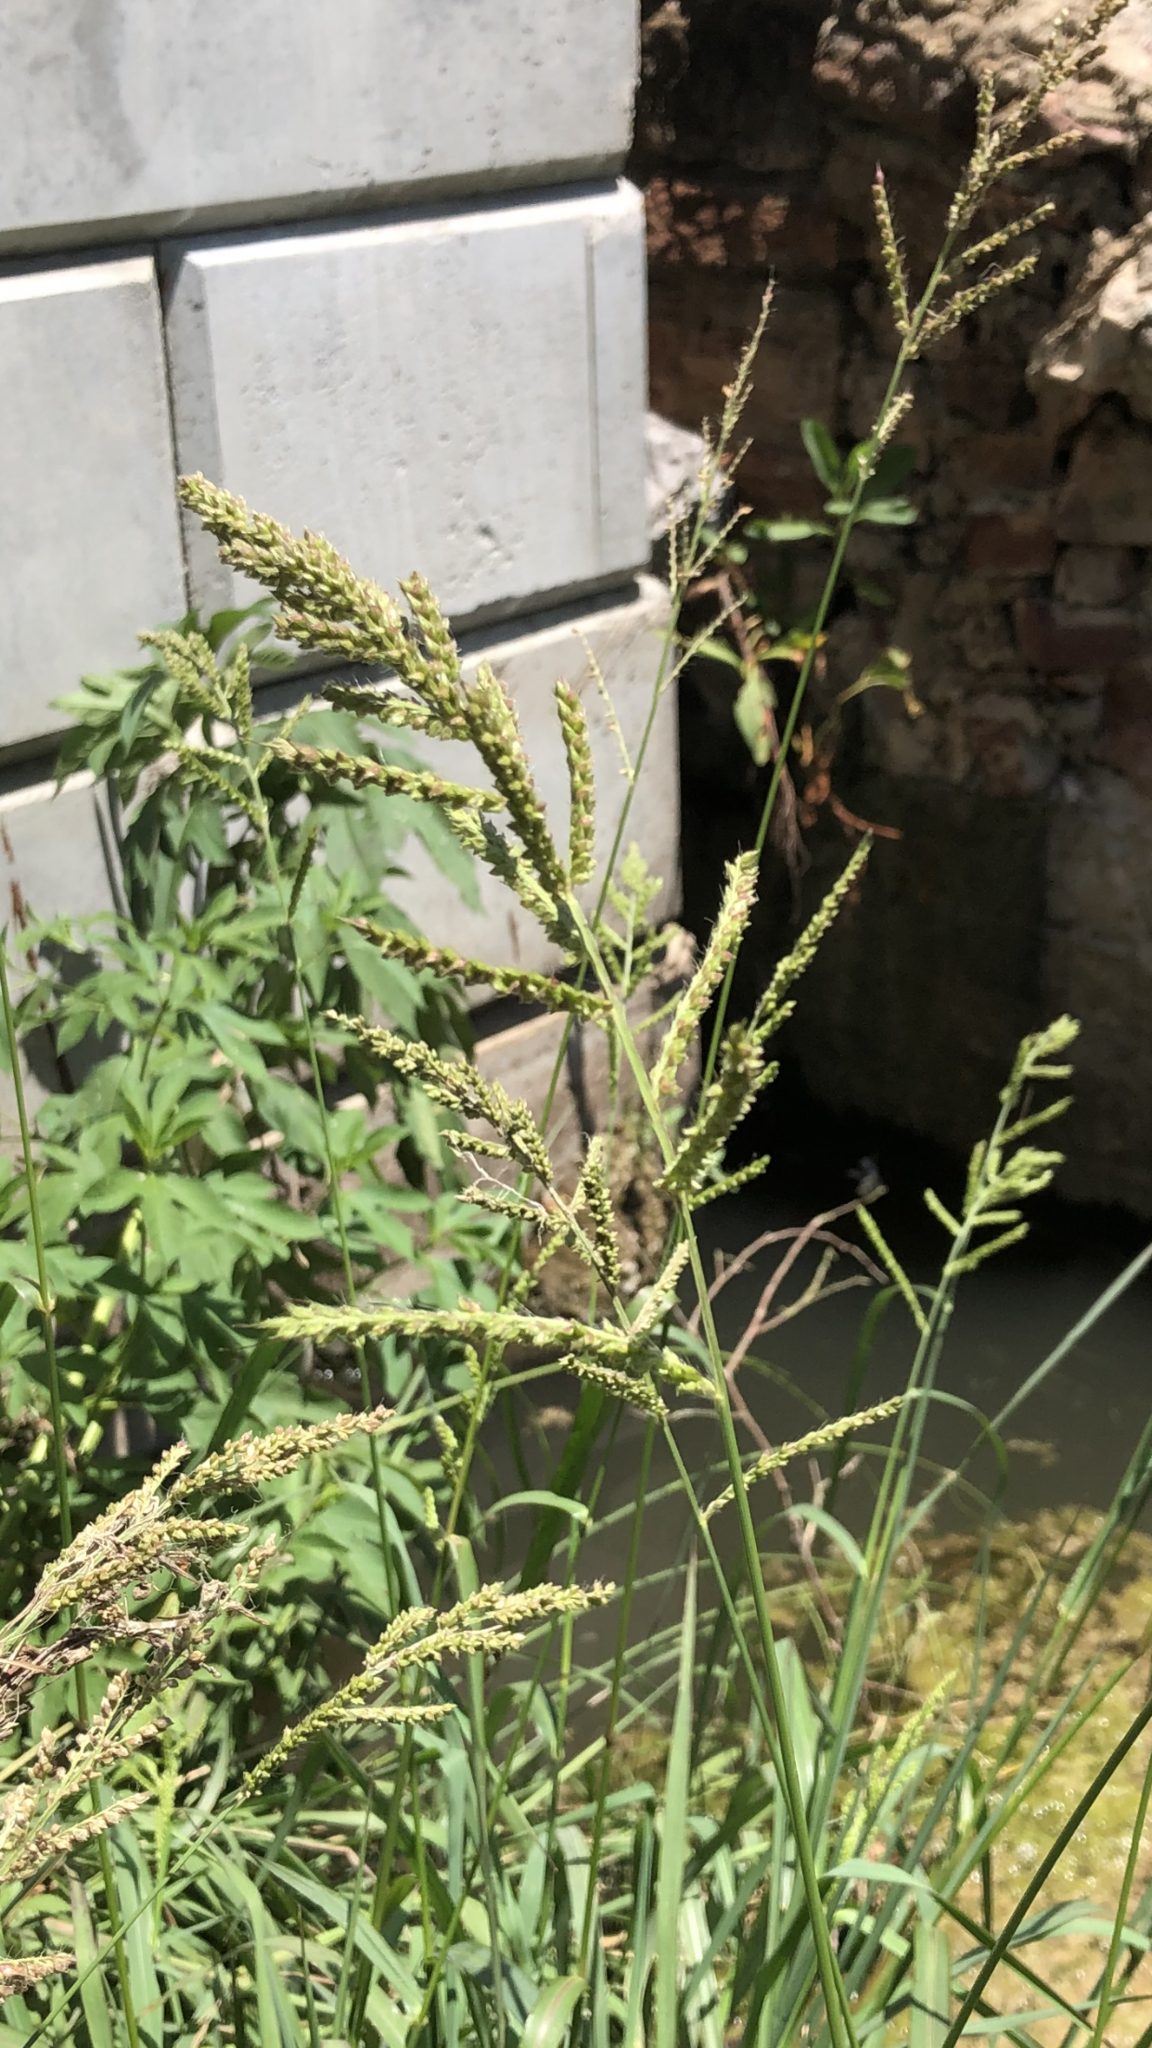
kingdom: Plantae
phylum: Tracheophyta
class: Liliopsida
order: Poales
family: Poaceae
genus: Echinochloa
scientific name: Echinochloa crus-galli
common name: Cockspur
